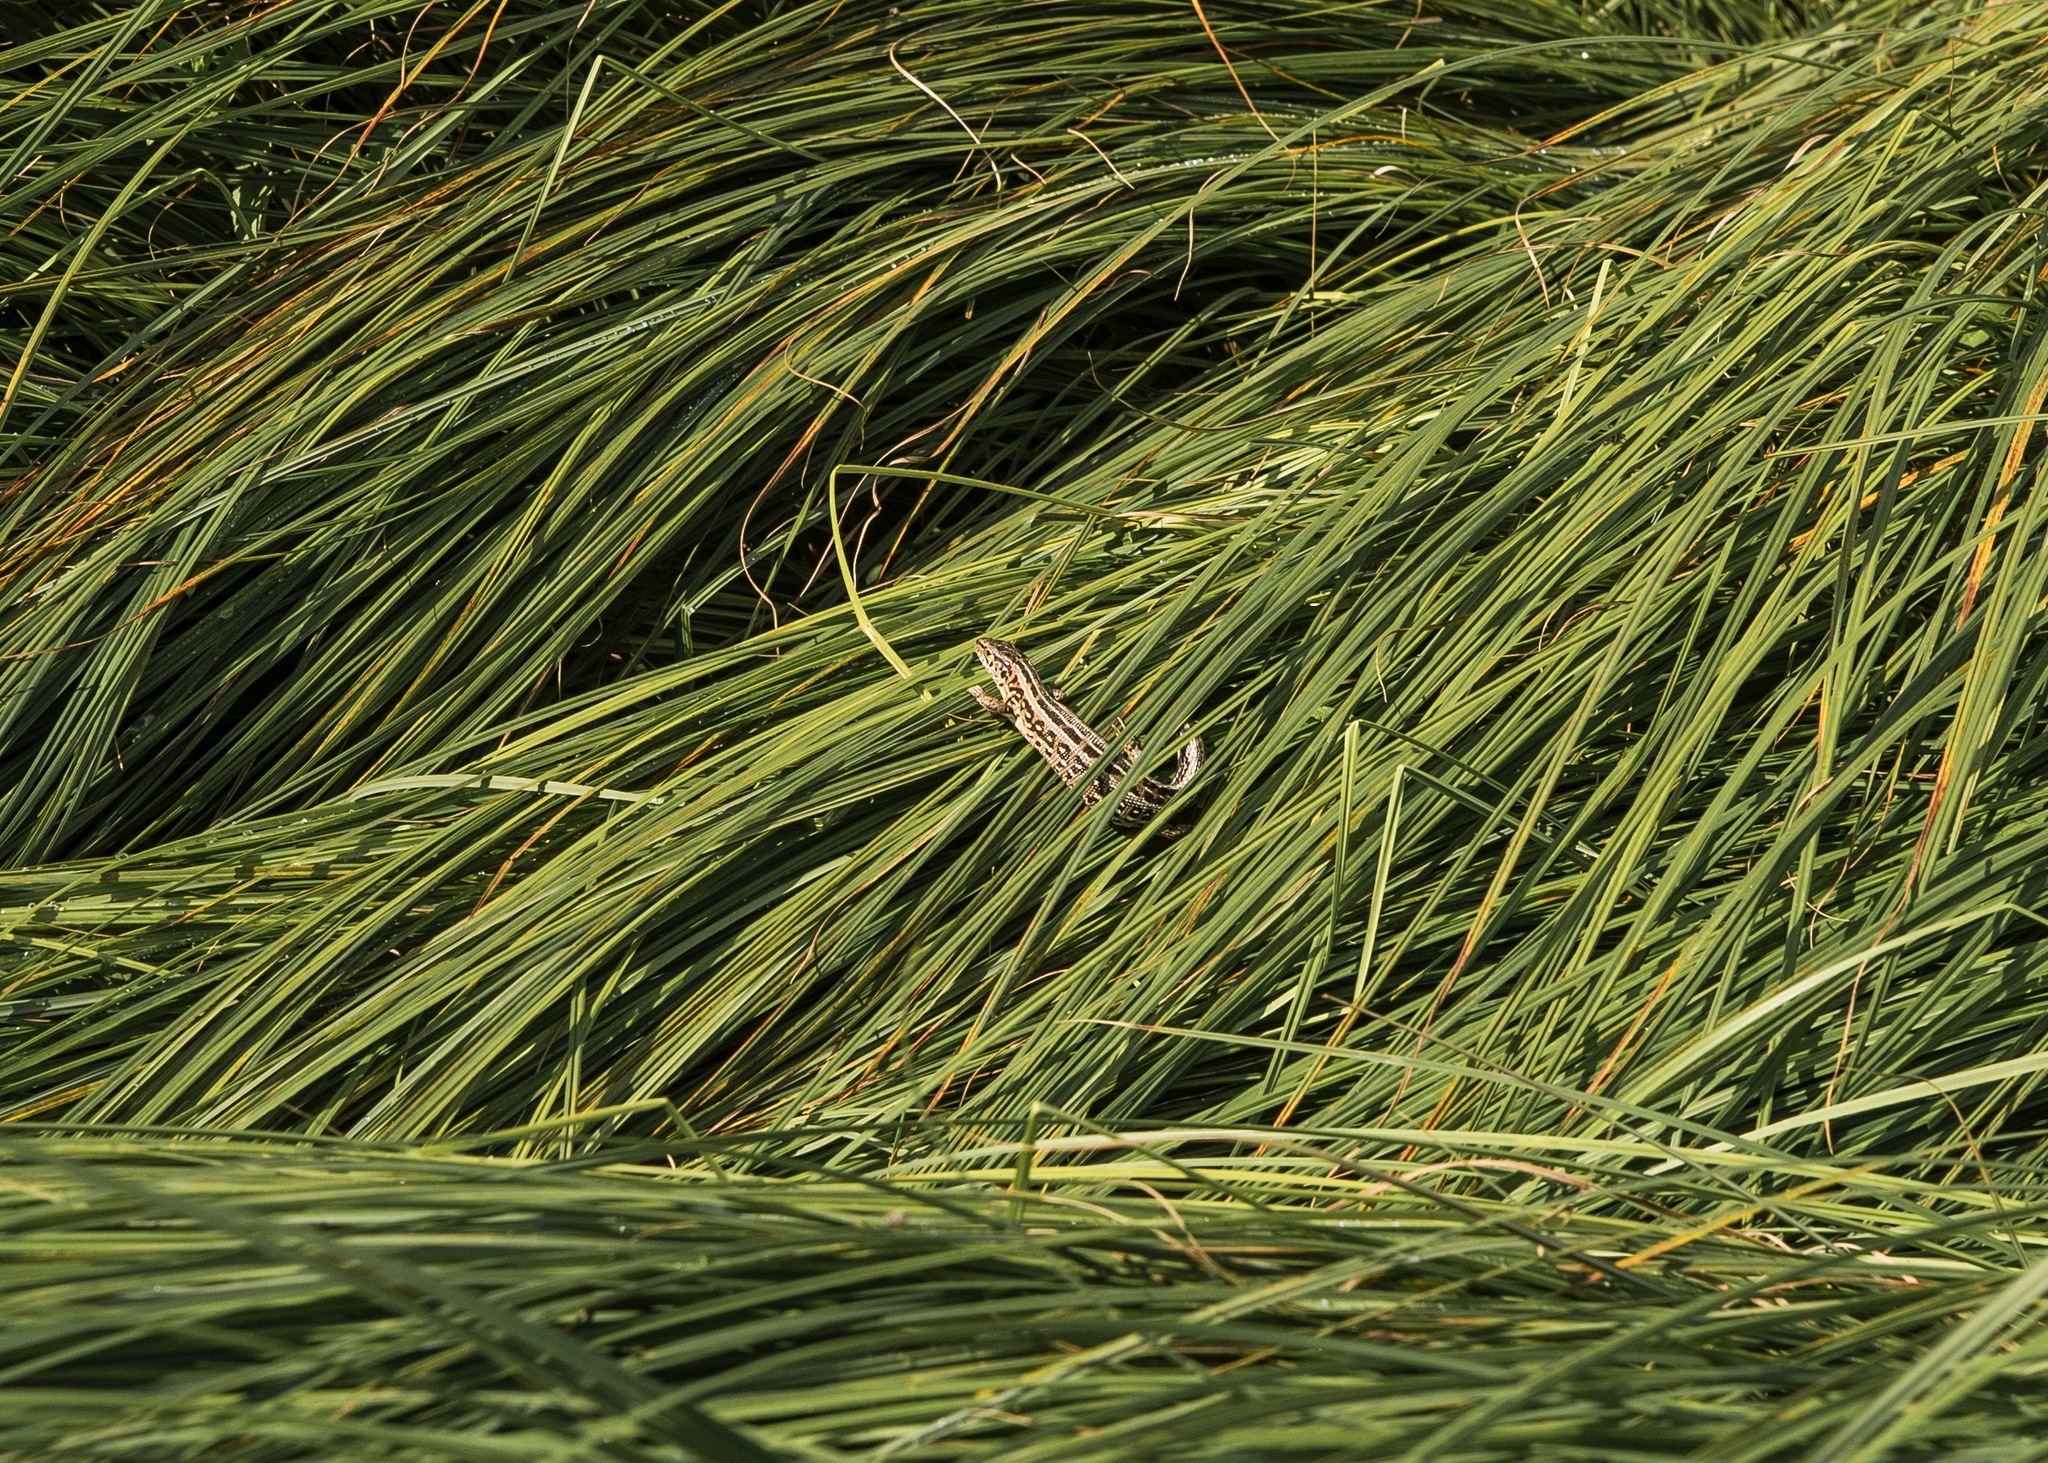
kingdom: Animalia
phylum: Chordata
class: Squamata
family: Lacertidae
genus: Lacerta
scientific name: Lacerta agilis
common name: Sand lizard
